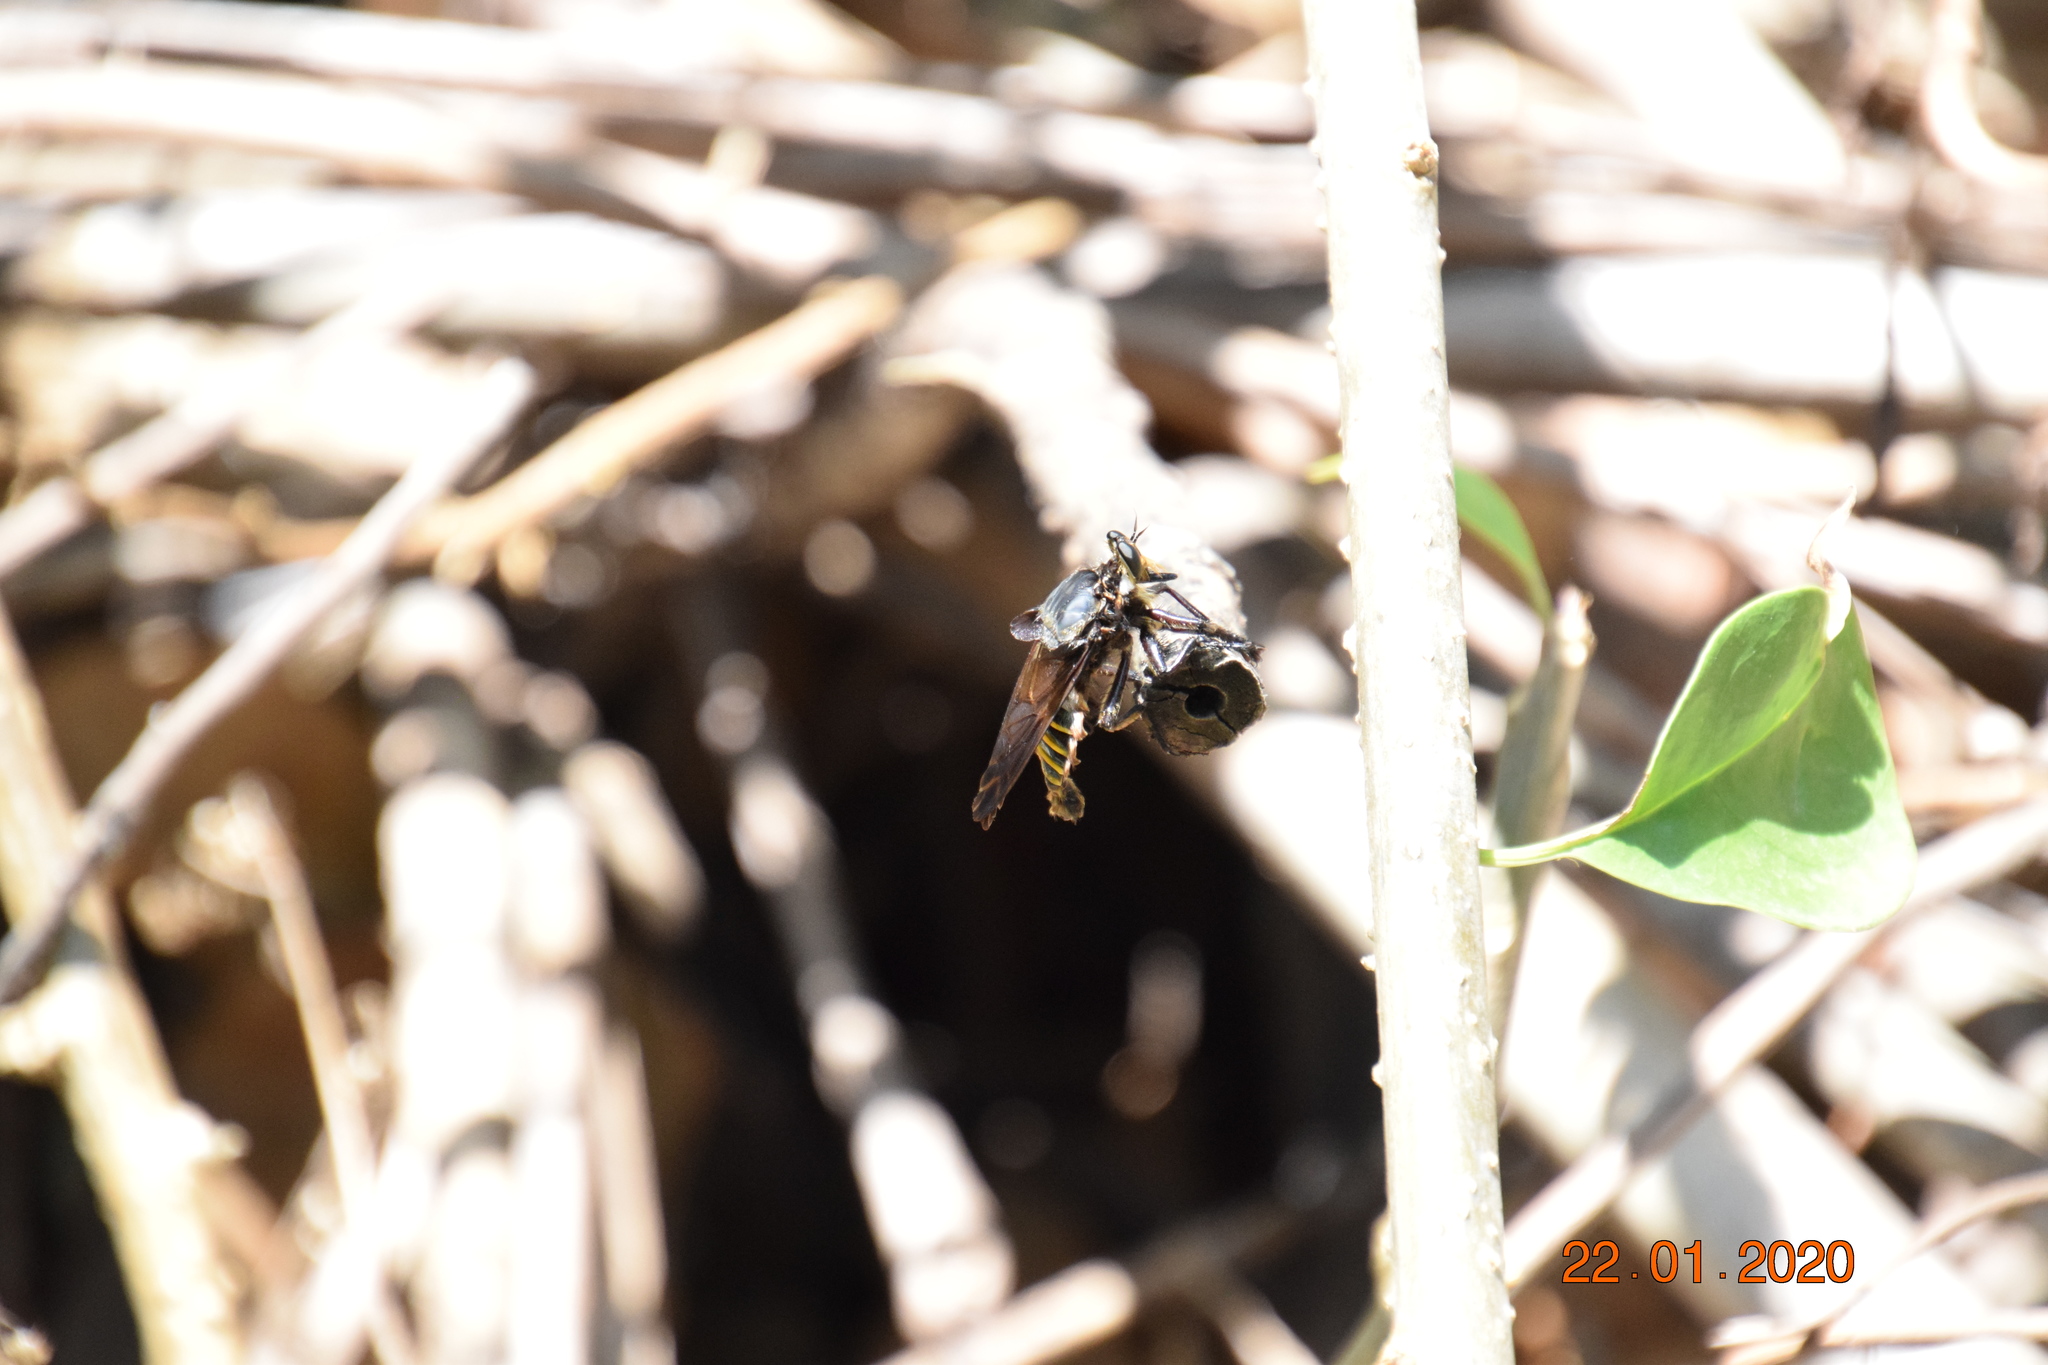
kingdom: Animalia
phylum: Arthropoda
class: Insecta
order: Diptera
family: Asilidae
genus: Blepharotes
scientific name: Blepharotes splendidissimus
